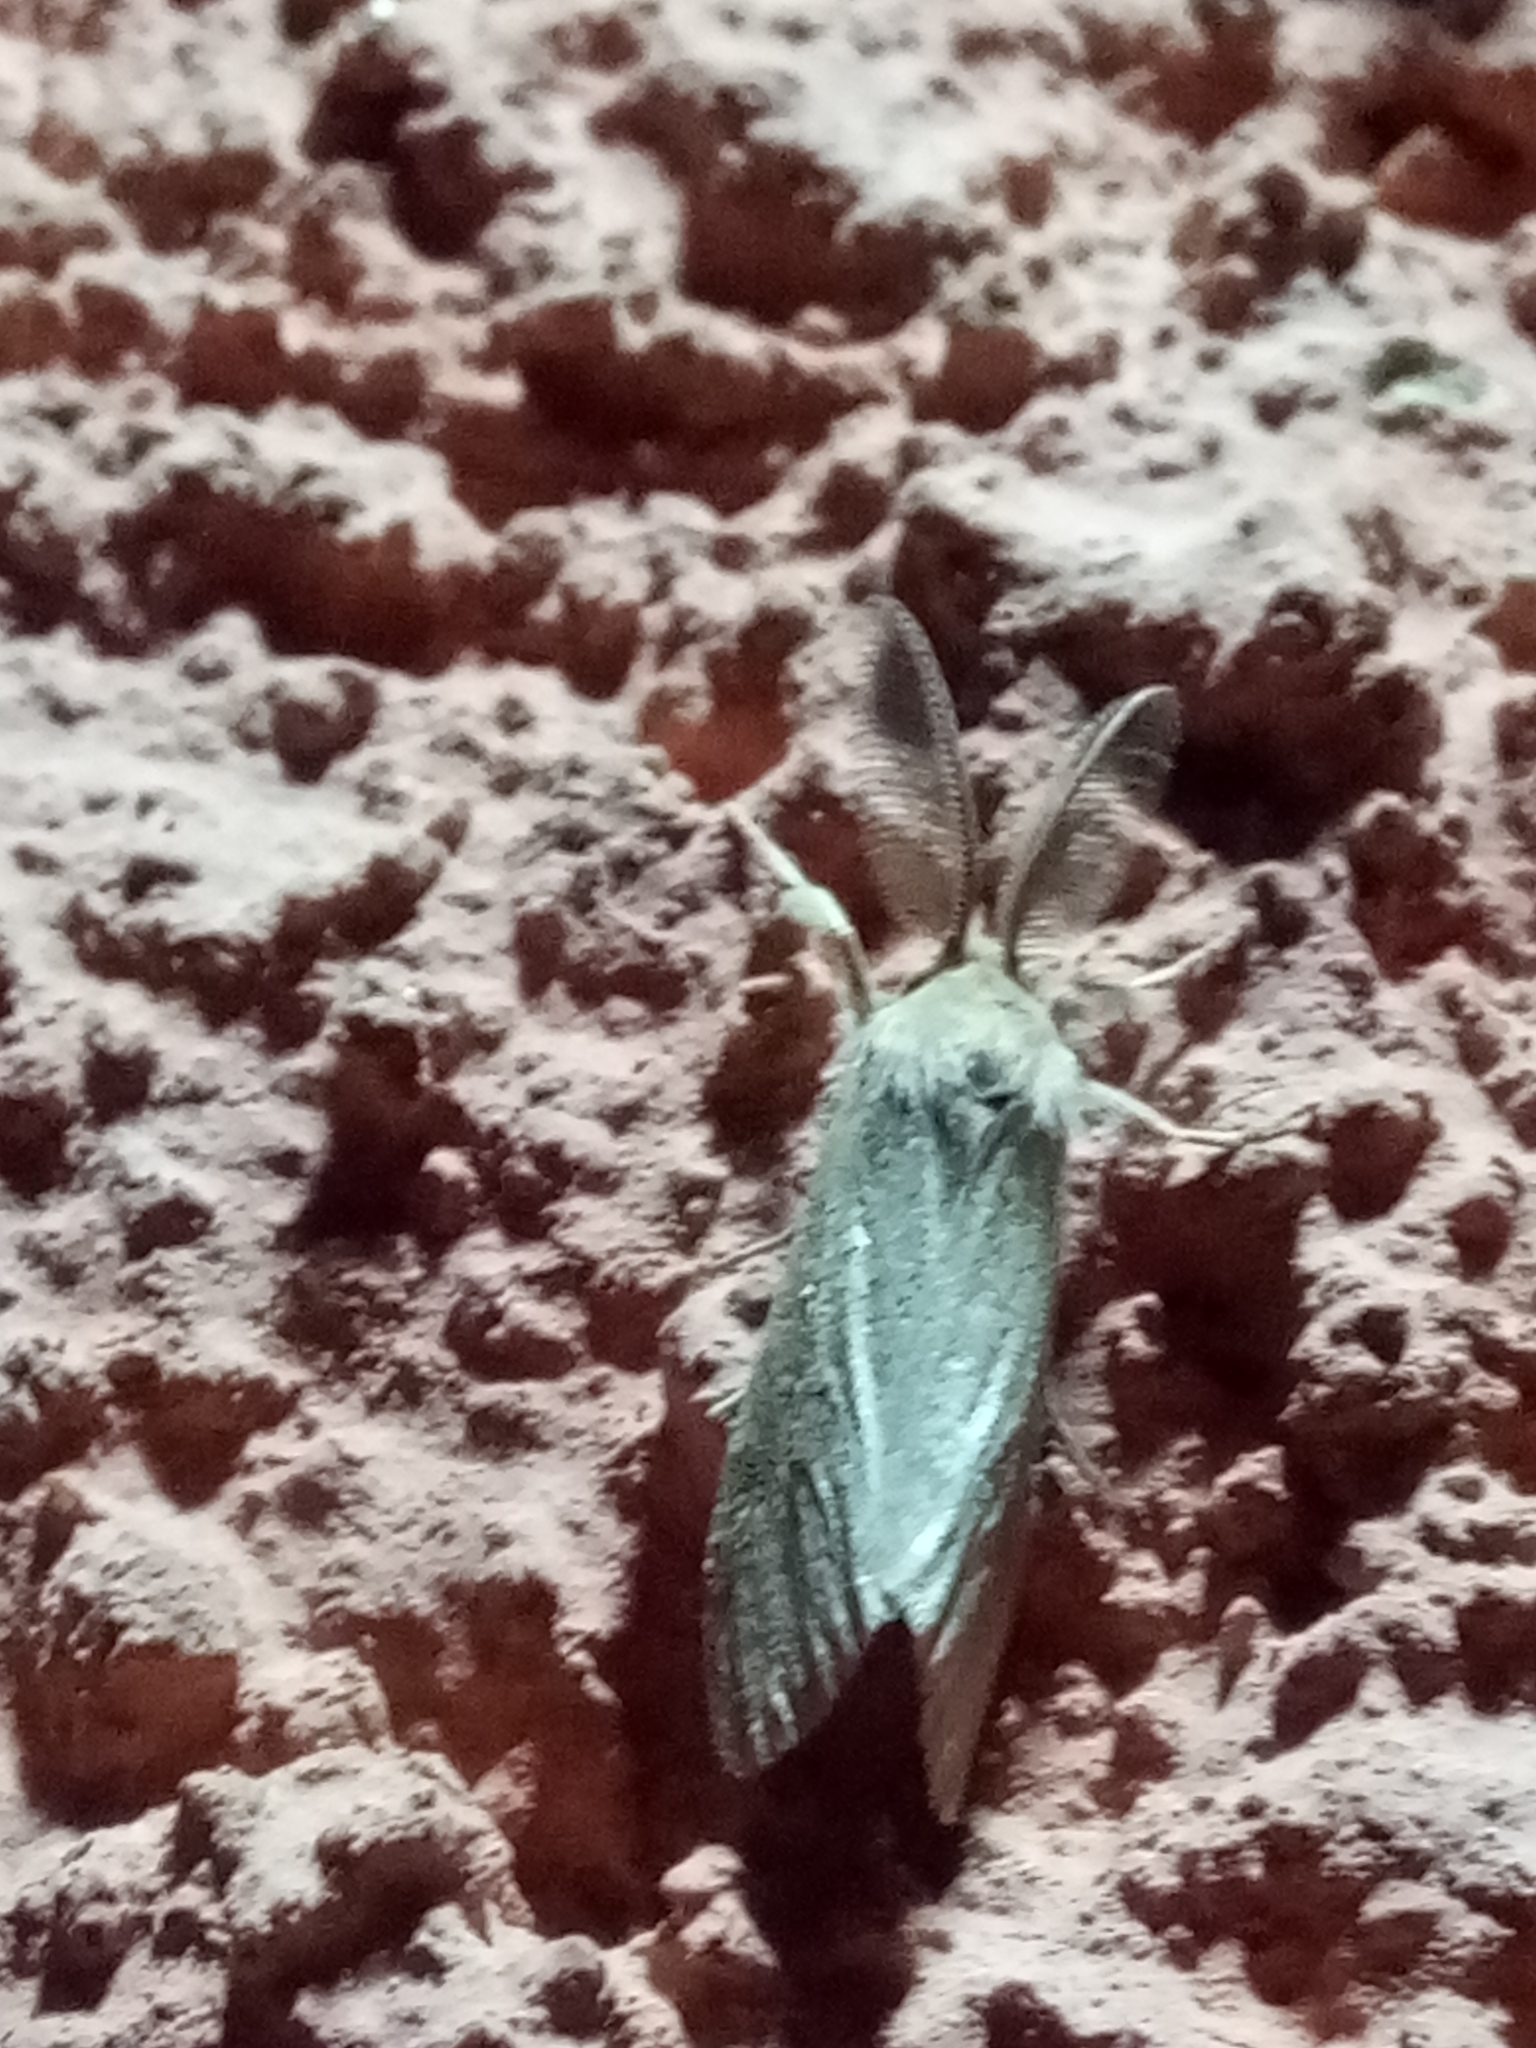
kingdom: Animalia
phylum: Arthropoda
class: Insecta
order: Lepidoptera
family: Erebidae
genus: Casama
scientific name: Casama innotata
